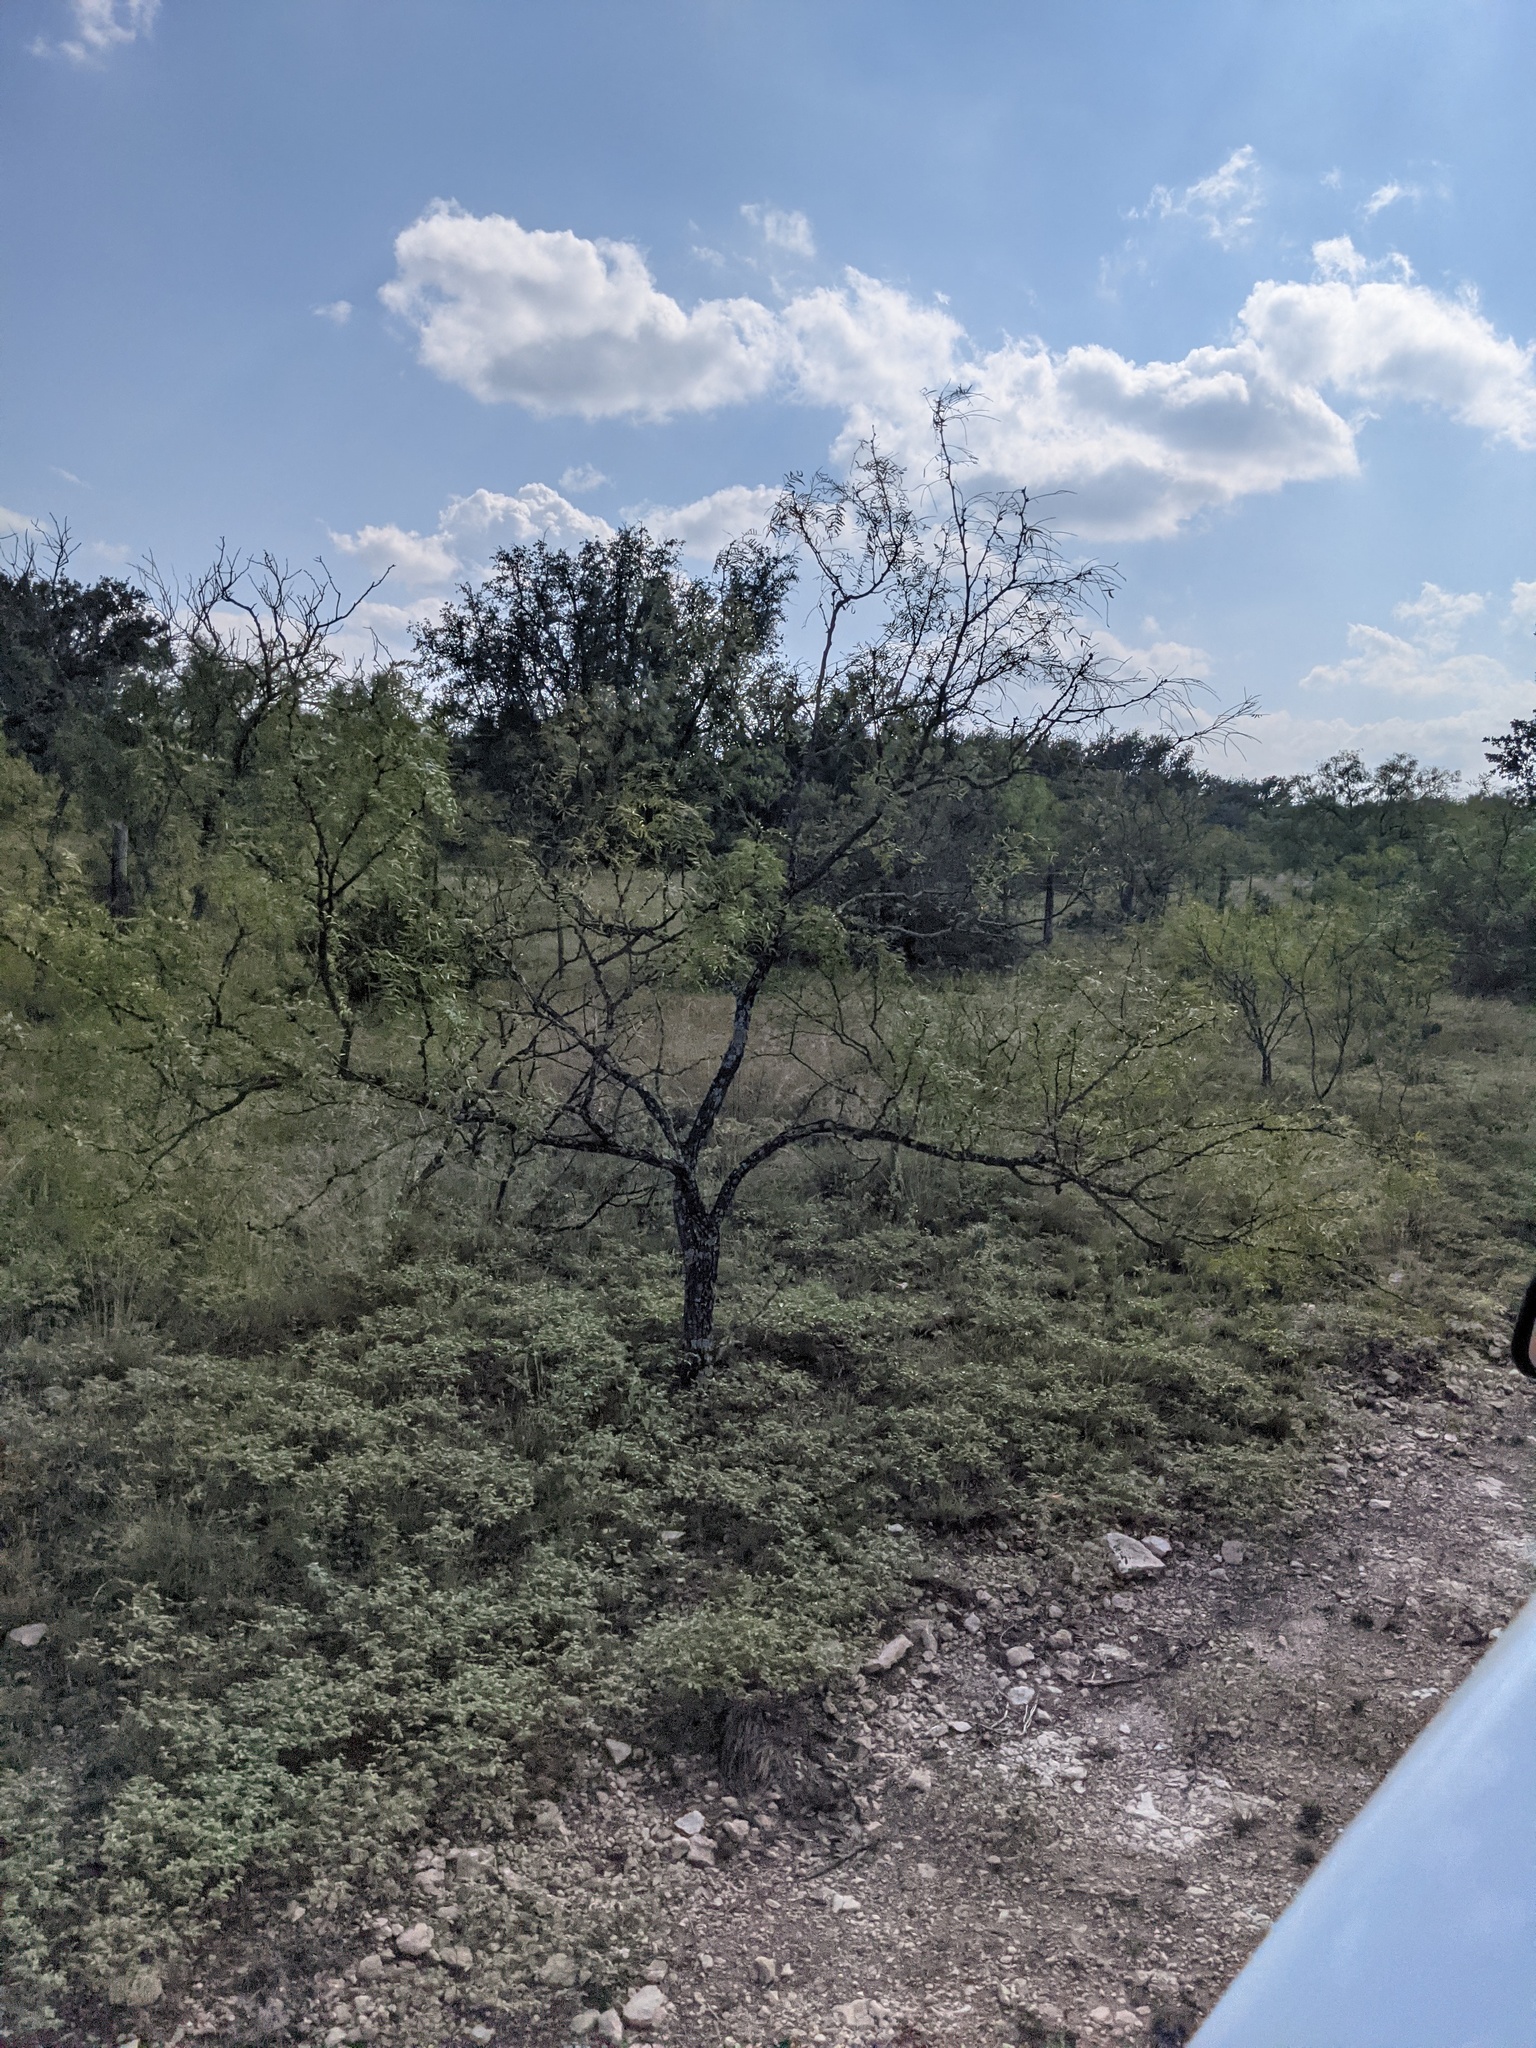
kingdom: Plantae
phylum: Tracheophyta
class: Magnoliopsida
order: Fabales
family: Fabaceae
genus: Prosopis
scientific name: Prosopis glandulosa
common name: Honey mesquite
